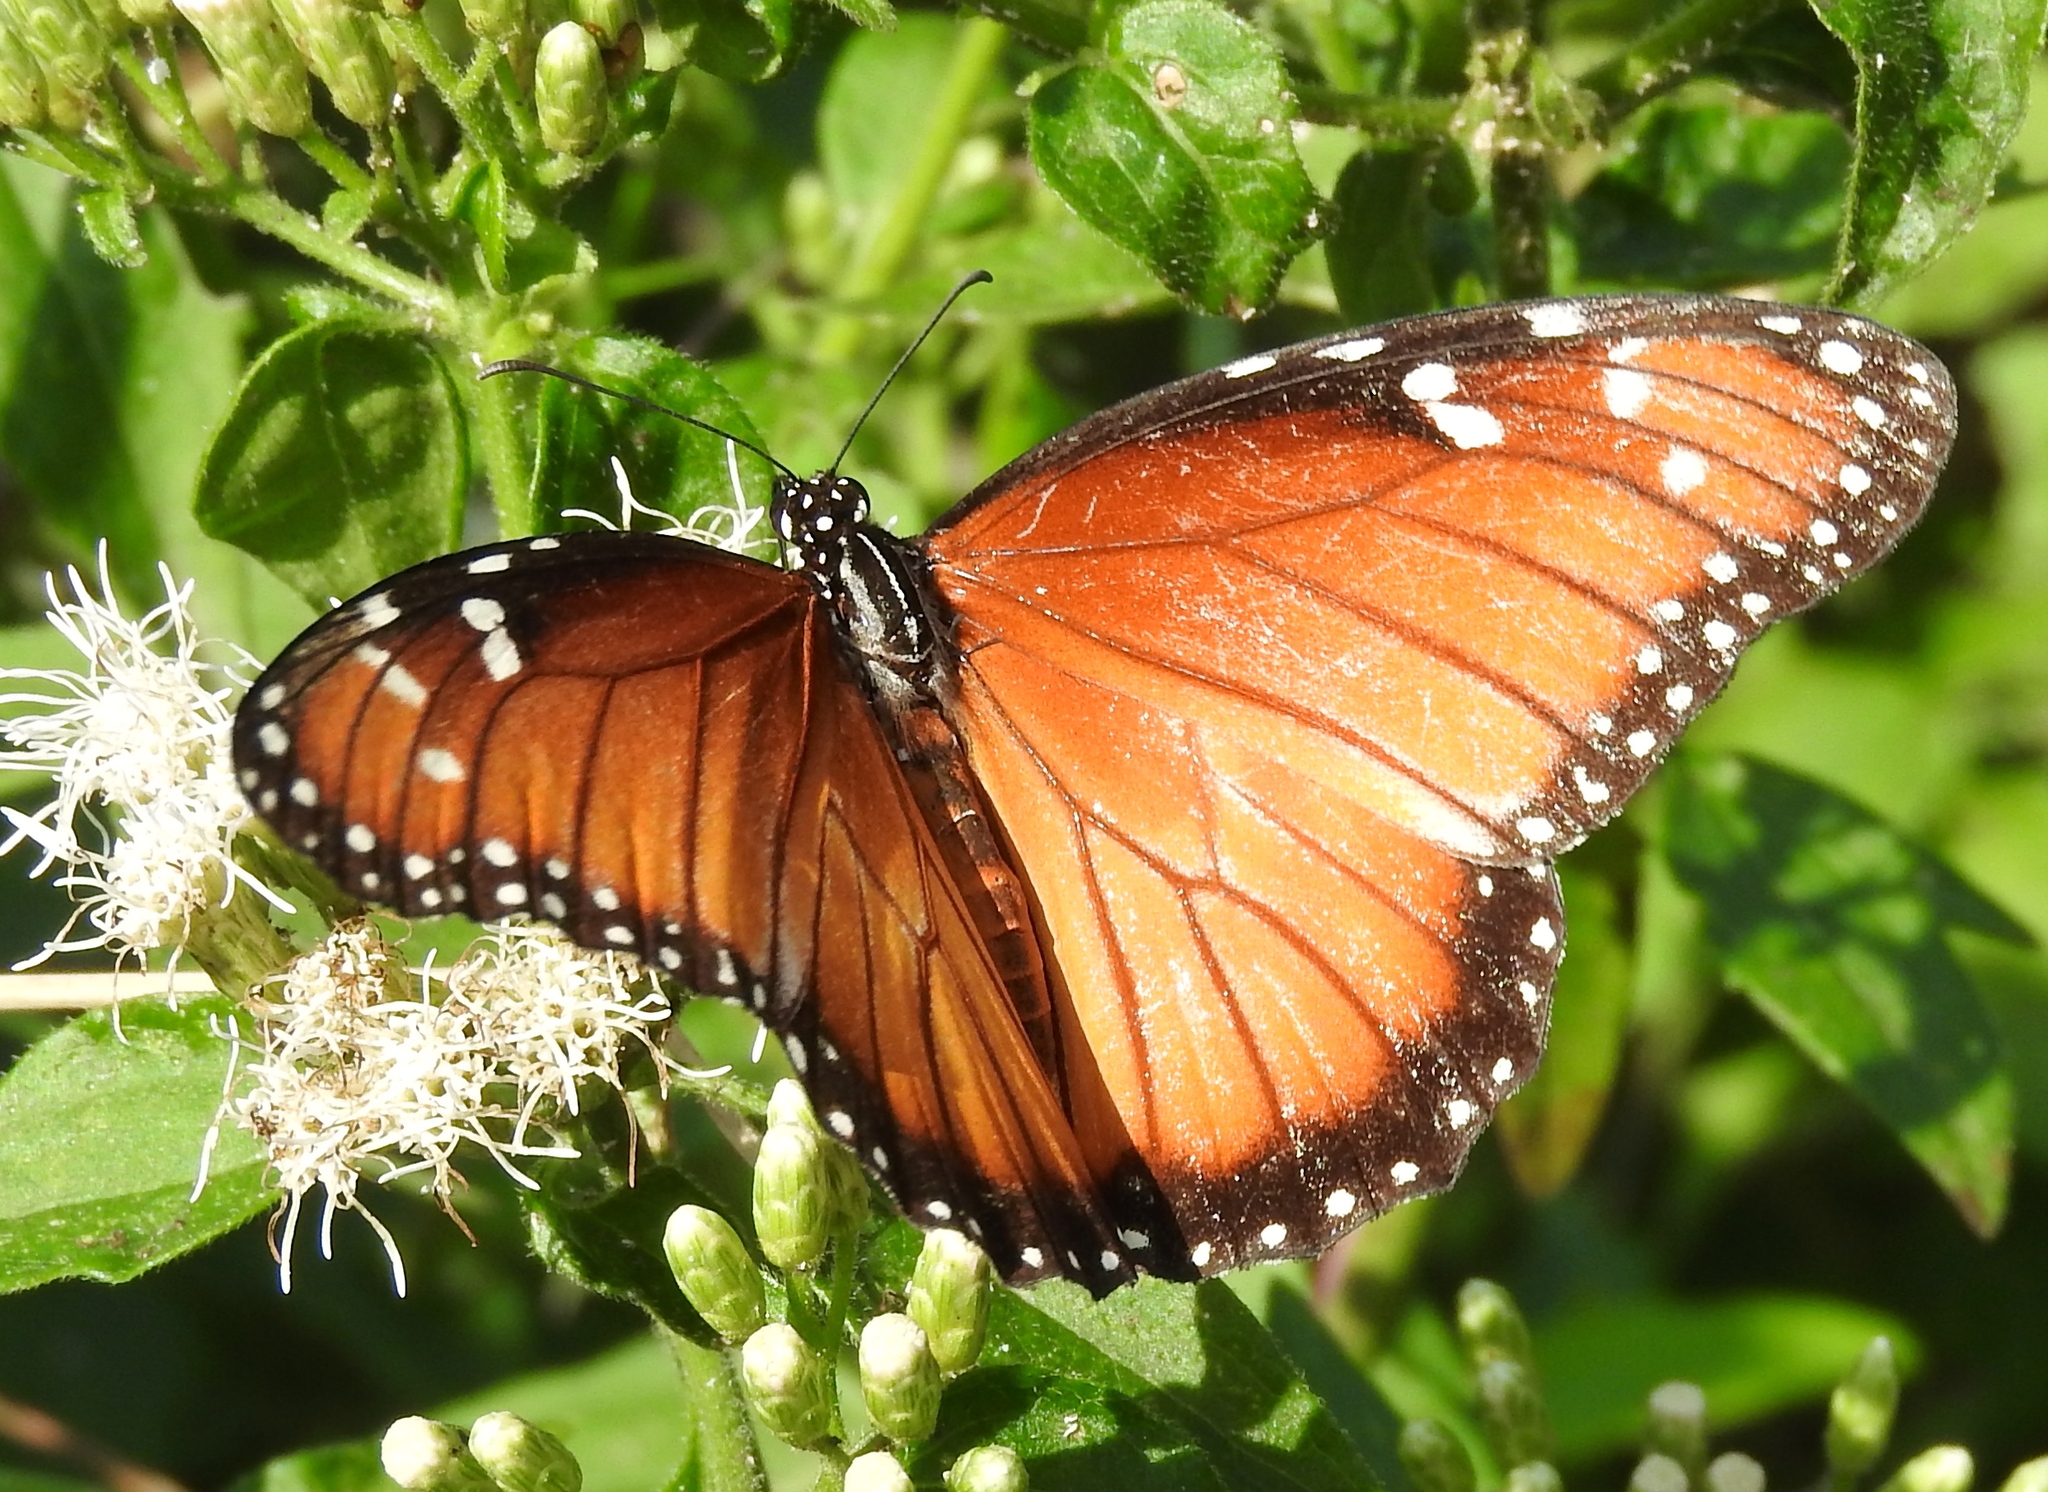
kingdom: Animalia
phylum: Arthropoda
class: Insecta
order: Lepidoptera
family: Nymphalidae
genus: Danaus
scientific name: Danaus eresimus
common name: Soldier
